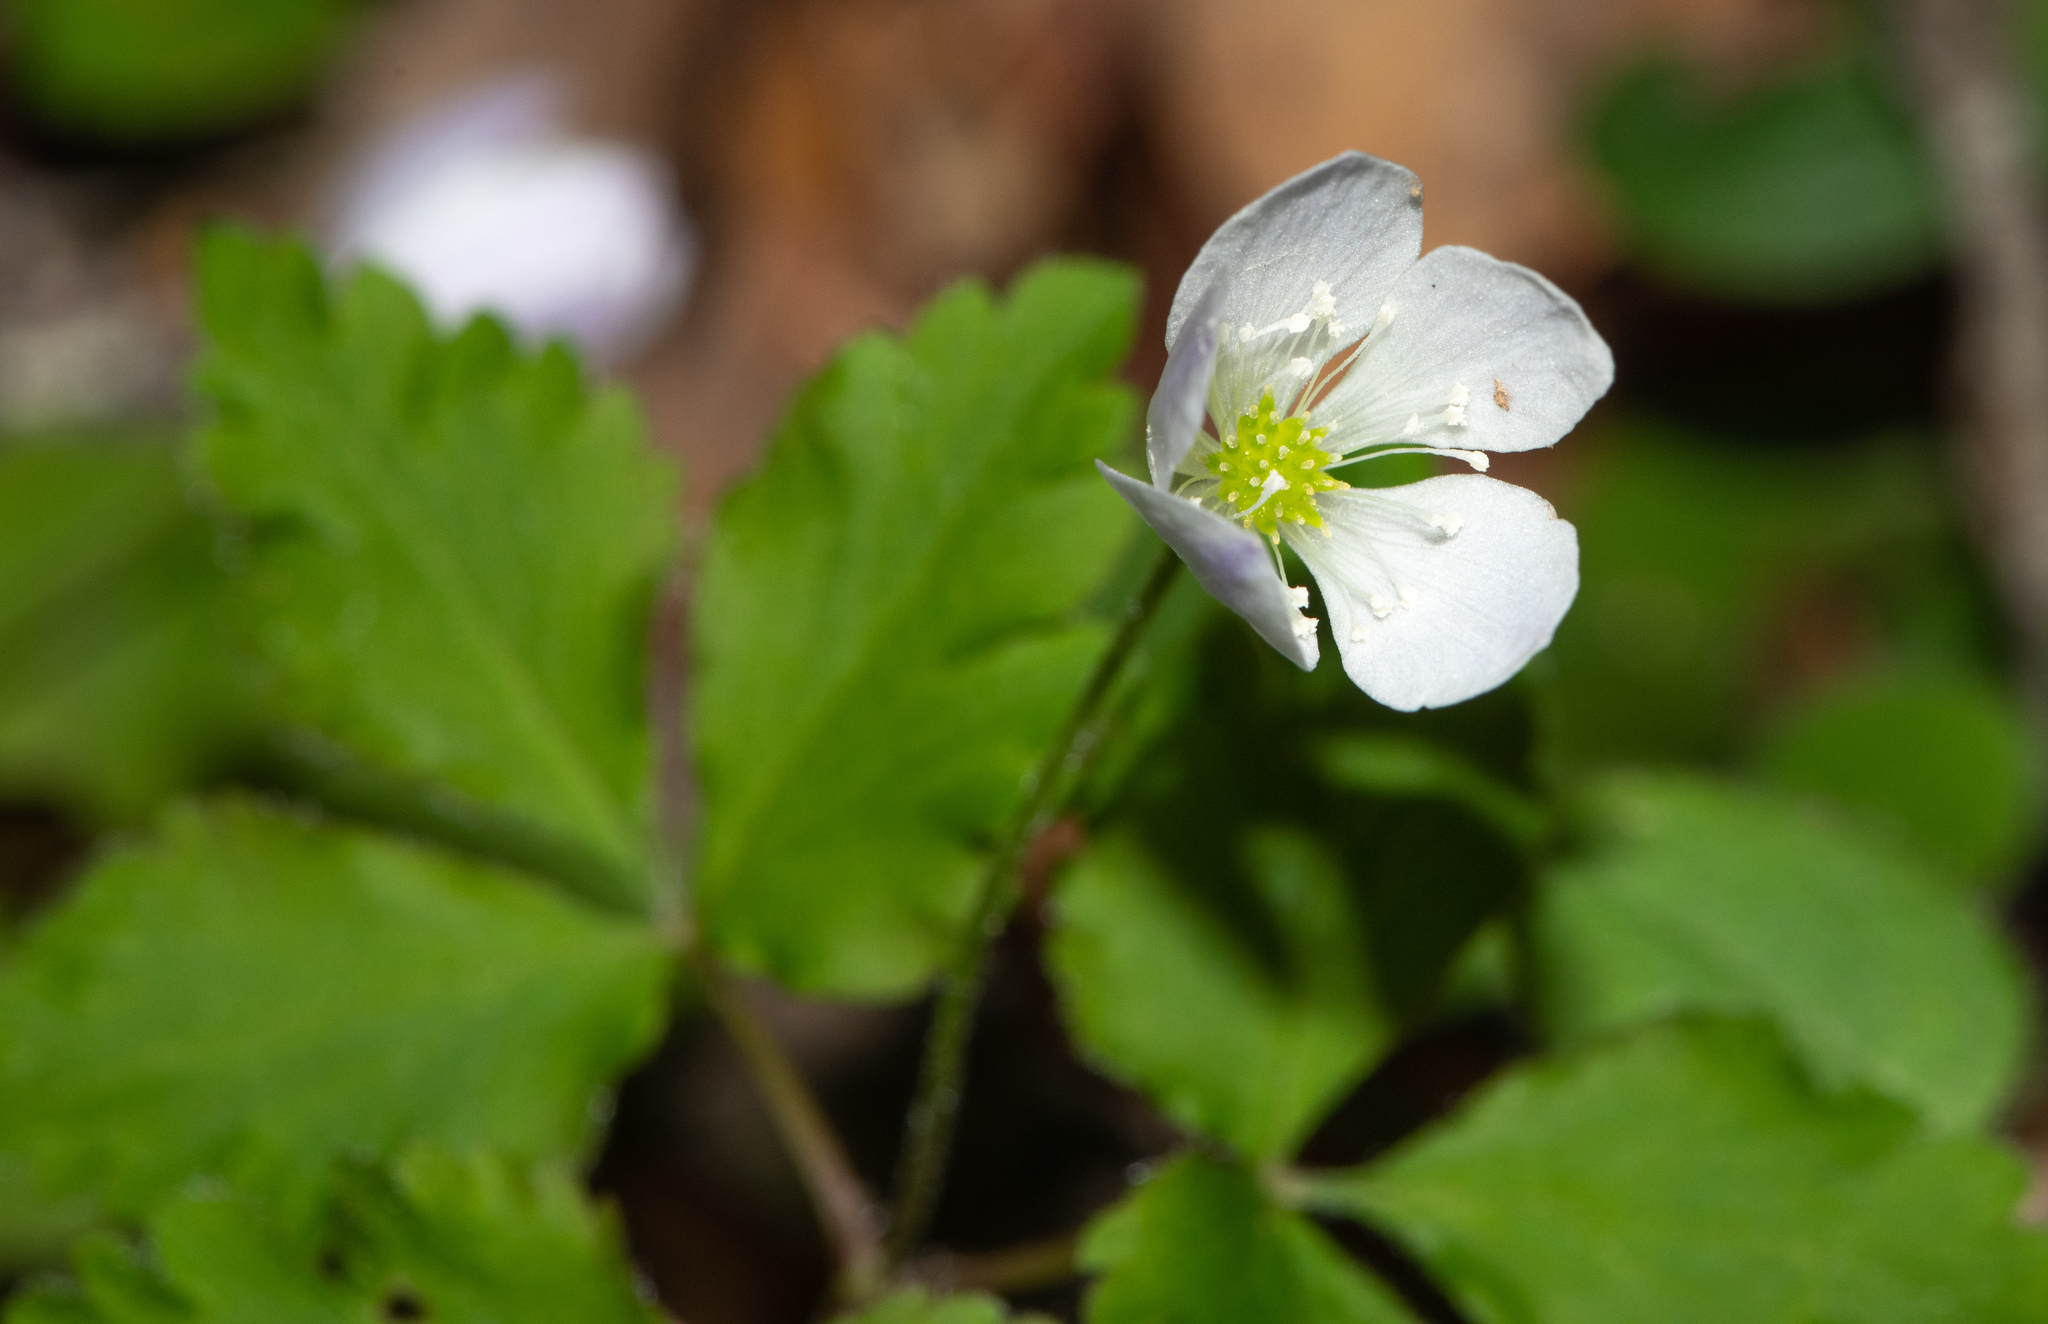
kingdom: Plantae
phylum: Tracheophyta
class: Magnoliopsida
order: Ranunculales
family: Ranunculaceae
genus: Anemone
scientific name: Anemone
